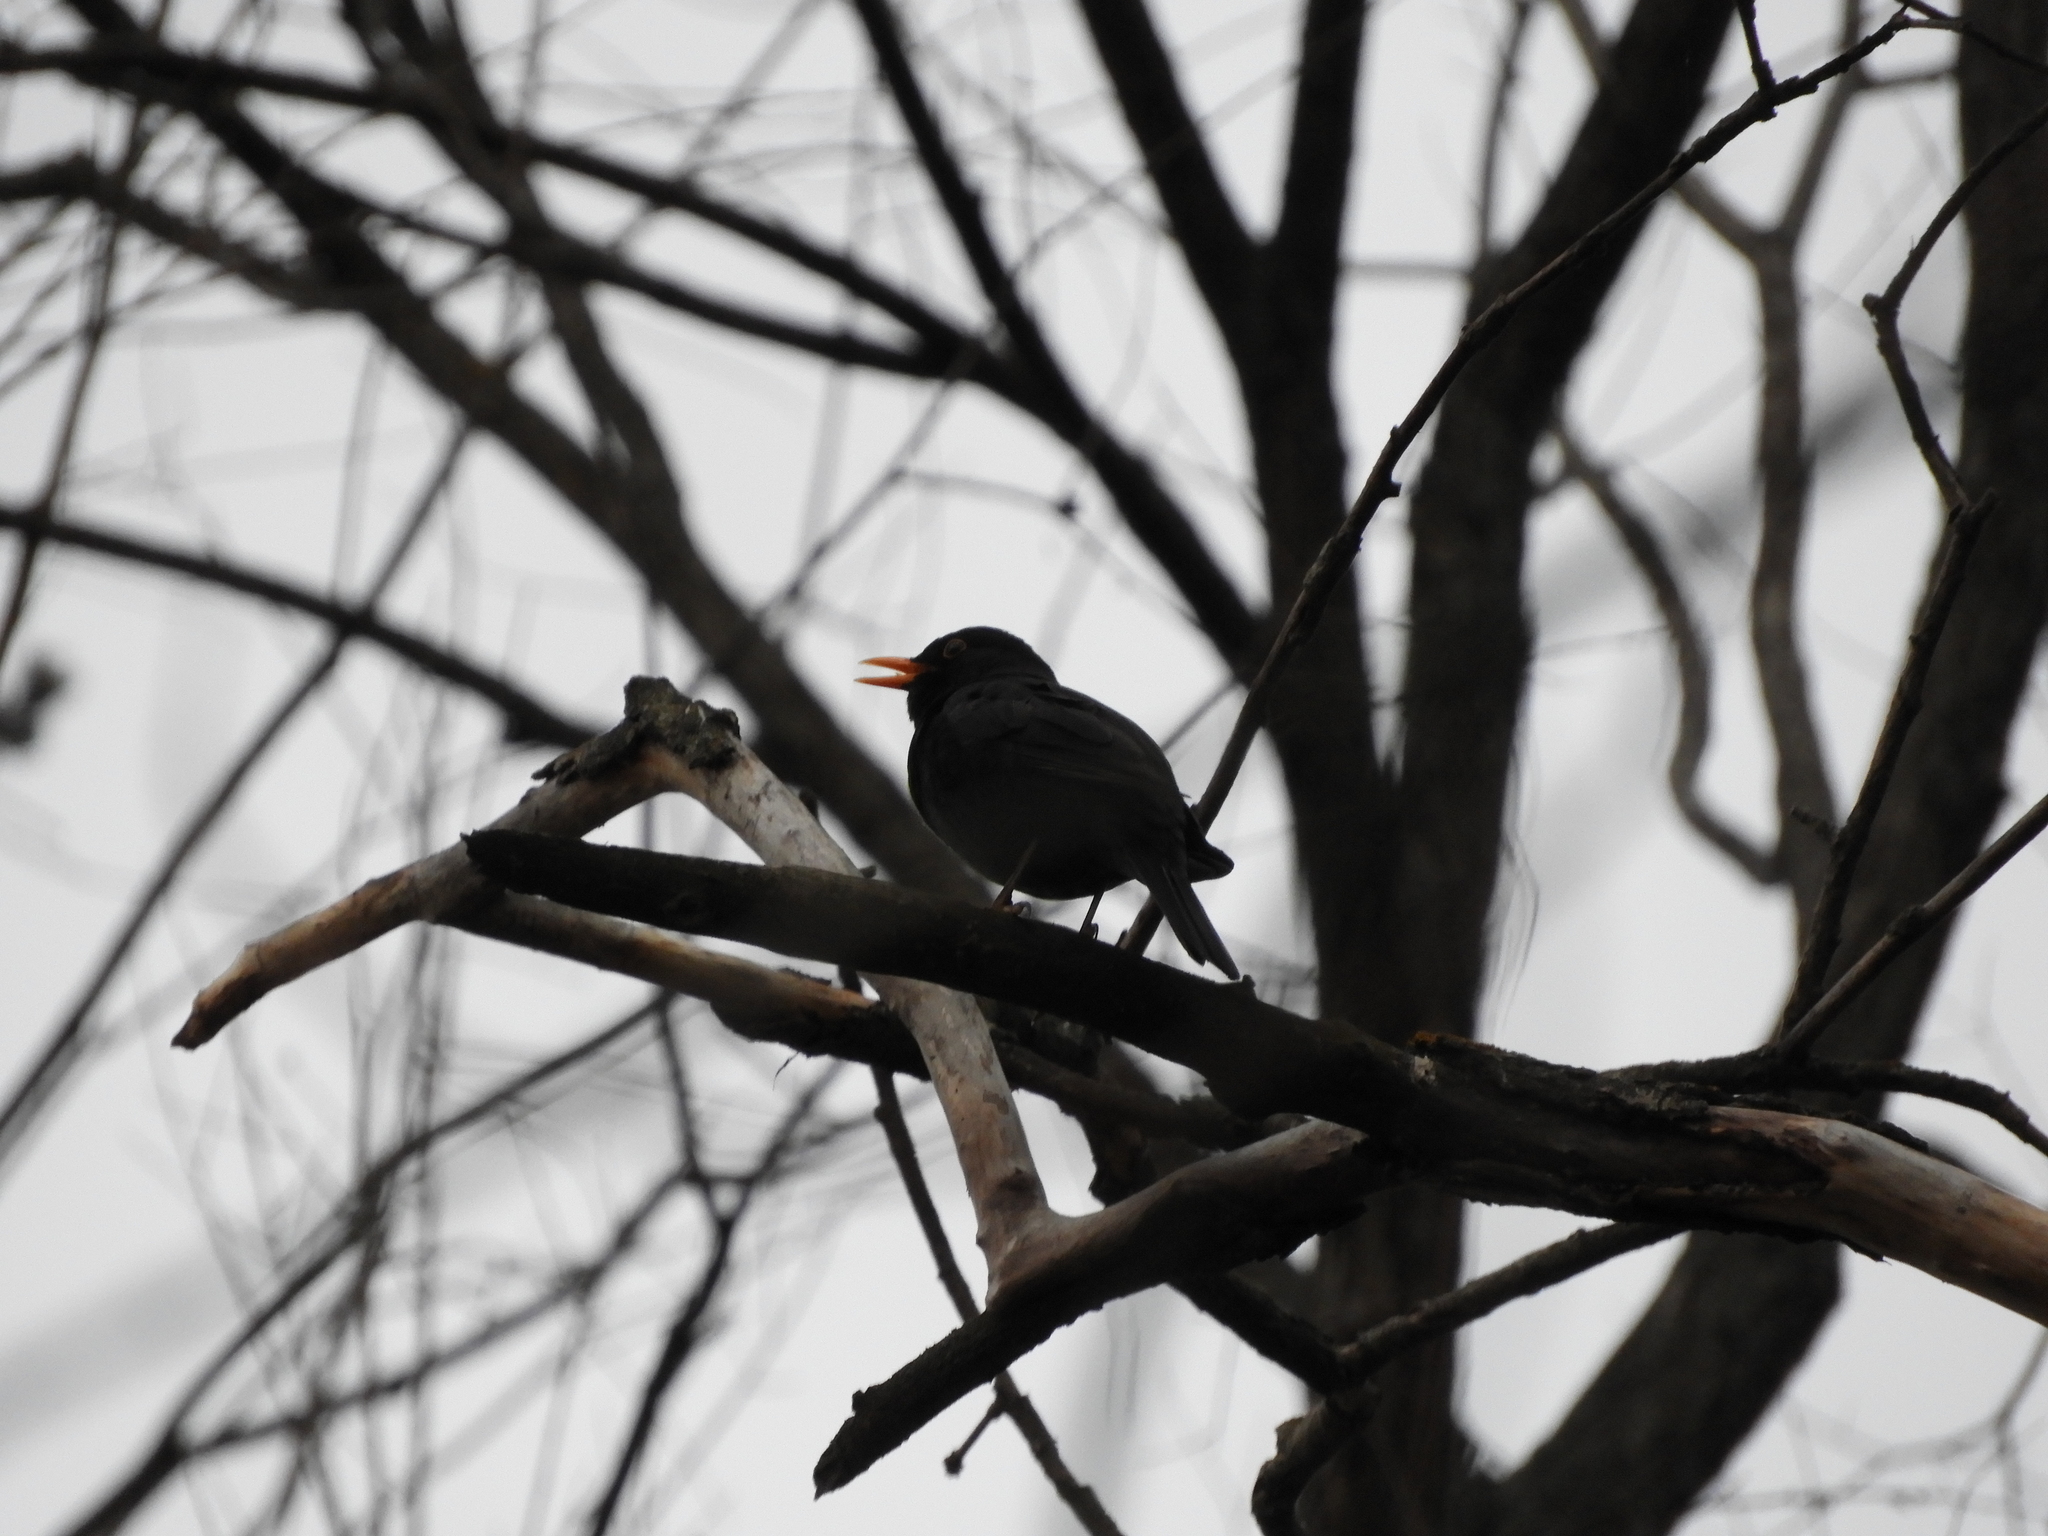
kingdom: Animalia
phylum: Chordata
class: Aves
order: Passeriformes
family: Turdidae
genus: Turdus
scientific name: Turdus merula
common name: Common blackbird
